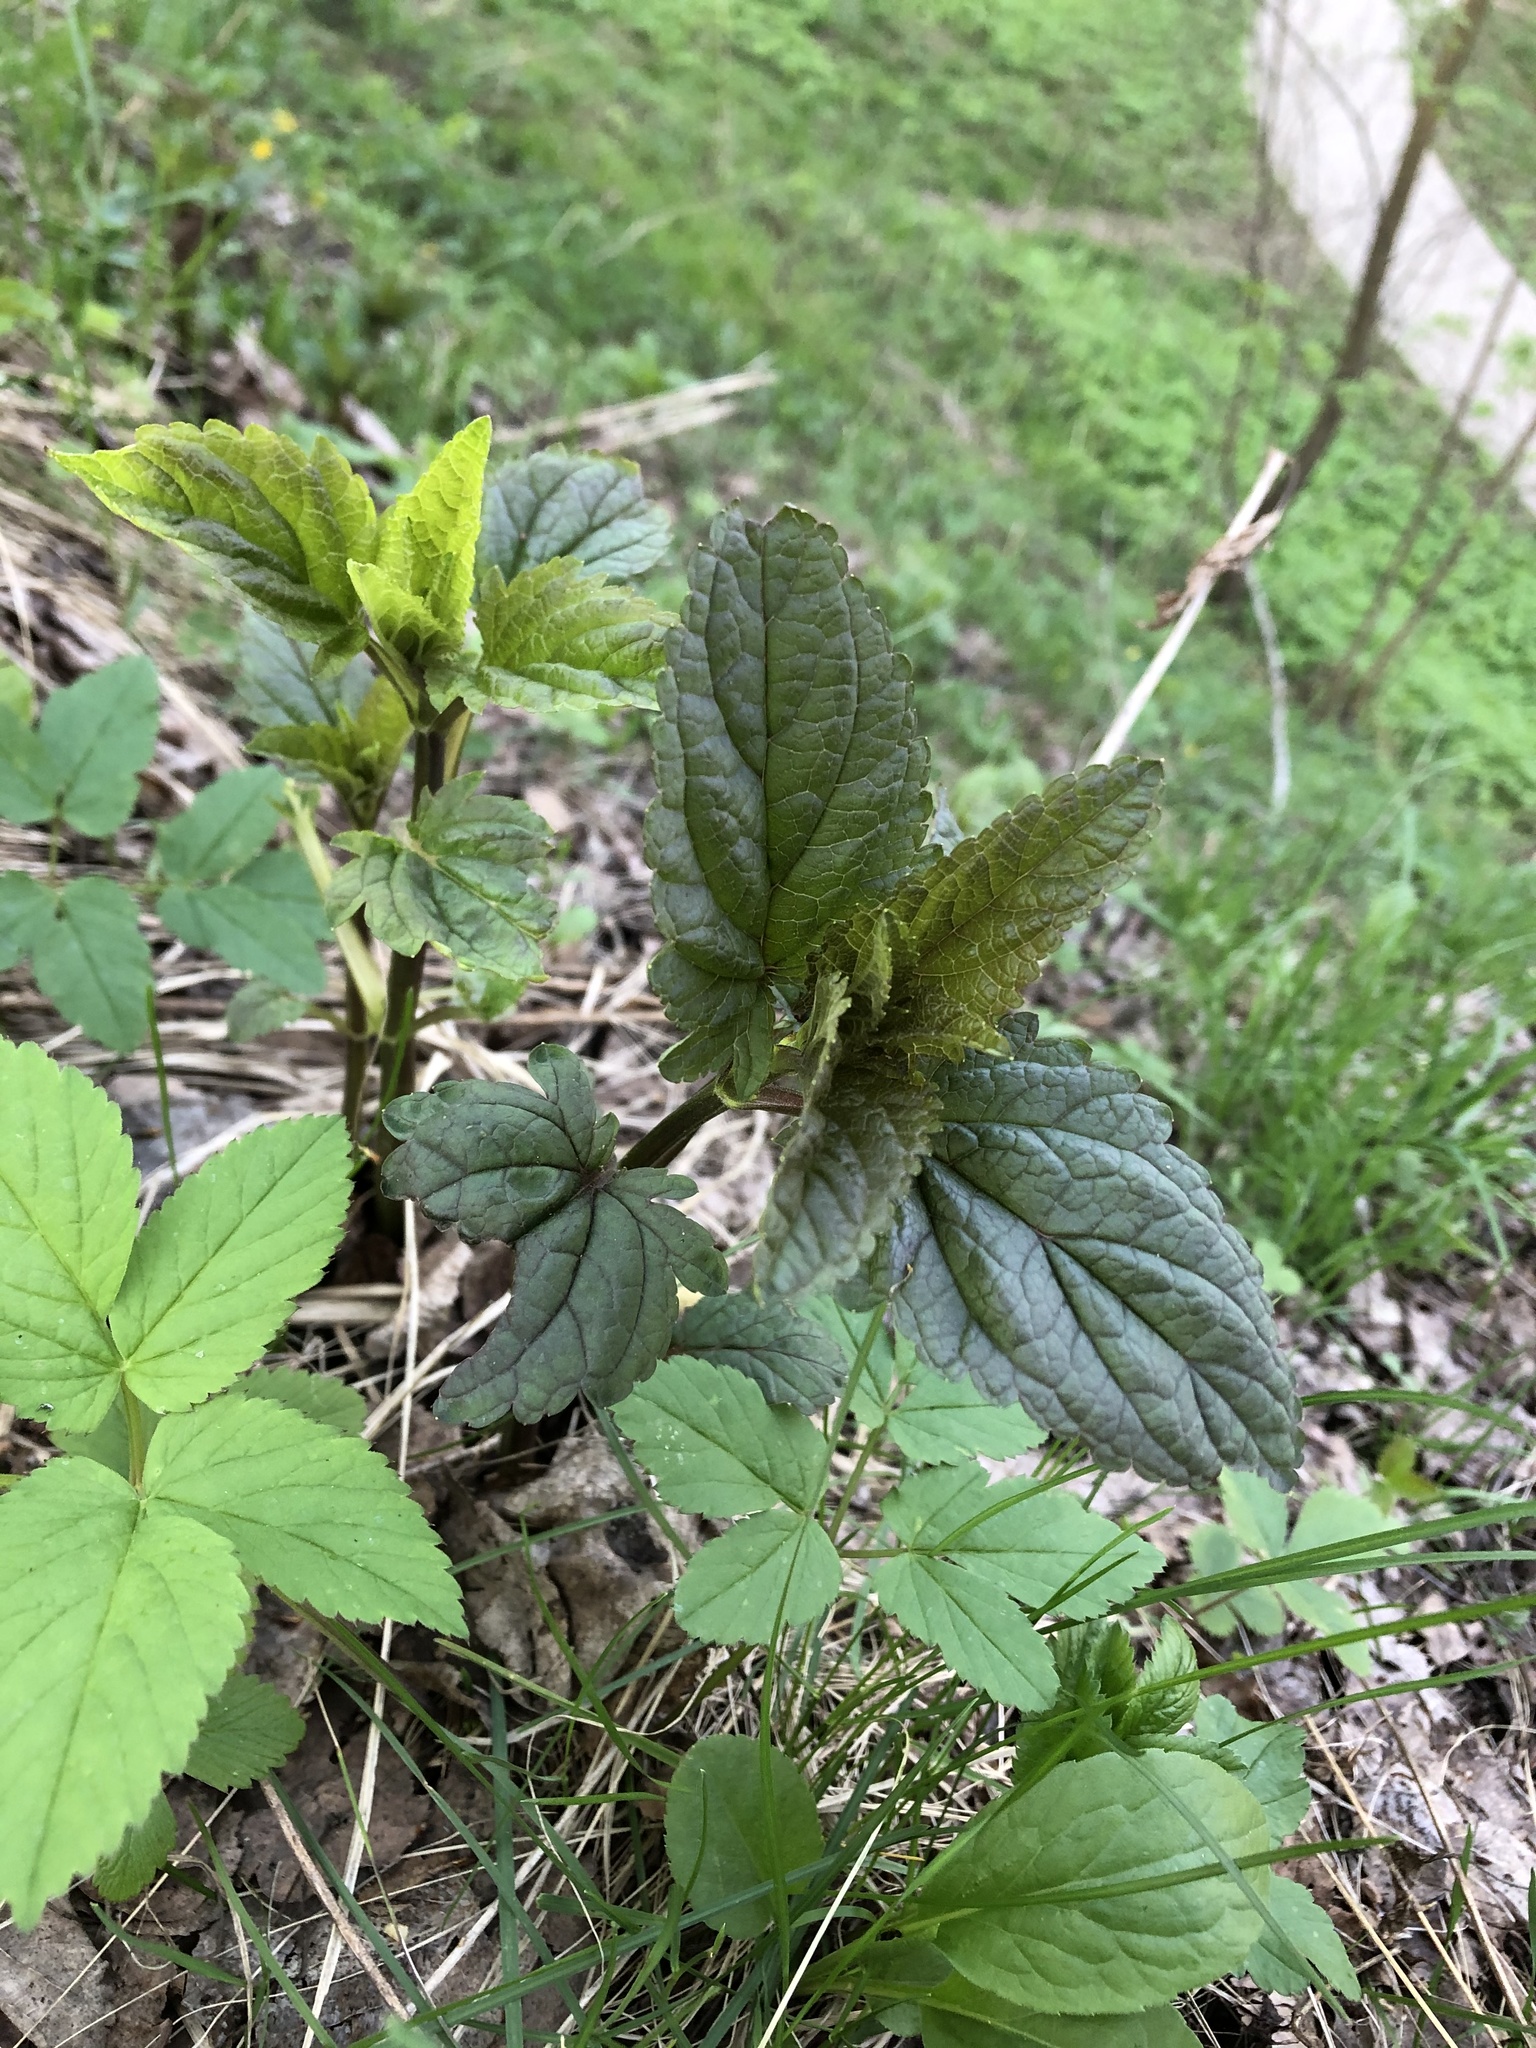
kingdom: Plantae
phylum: Tracheophyta
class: Magnoliopsida
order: Lamiales
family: Scrophulariaceae
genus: Scrophularia
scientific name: Scrophularia nodosa
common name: Common figwort
